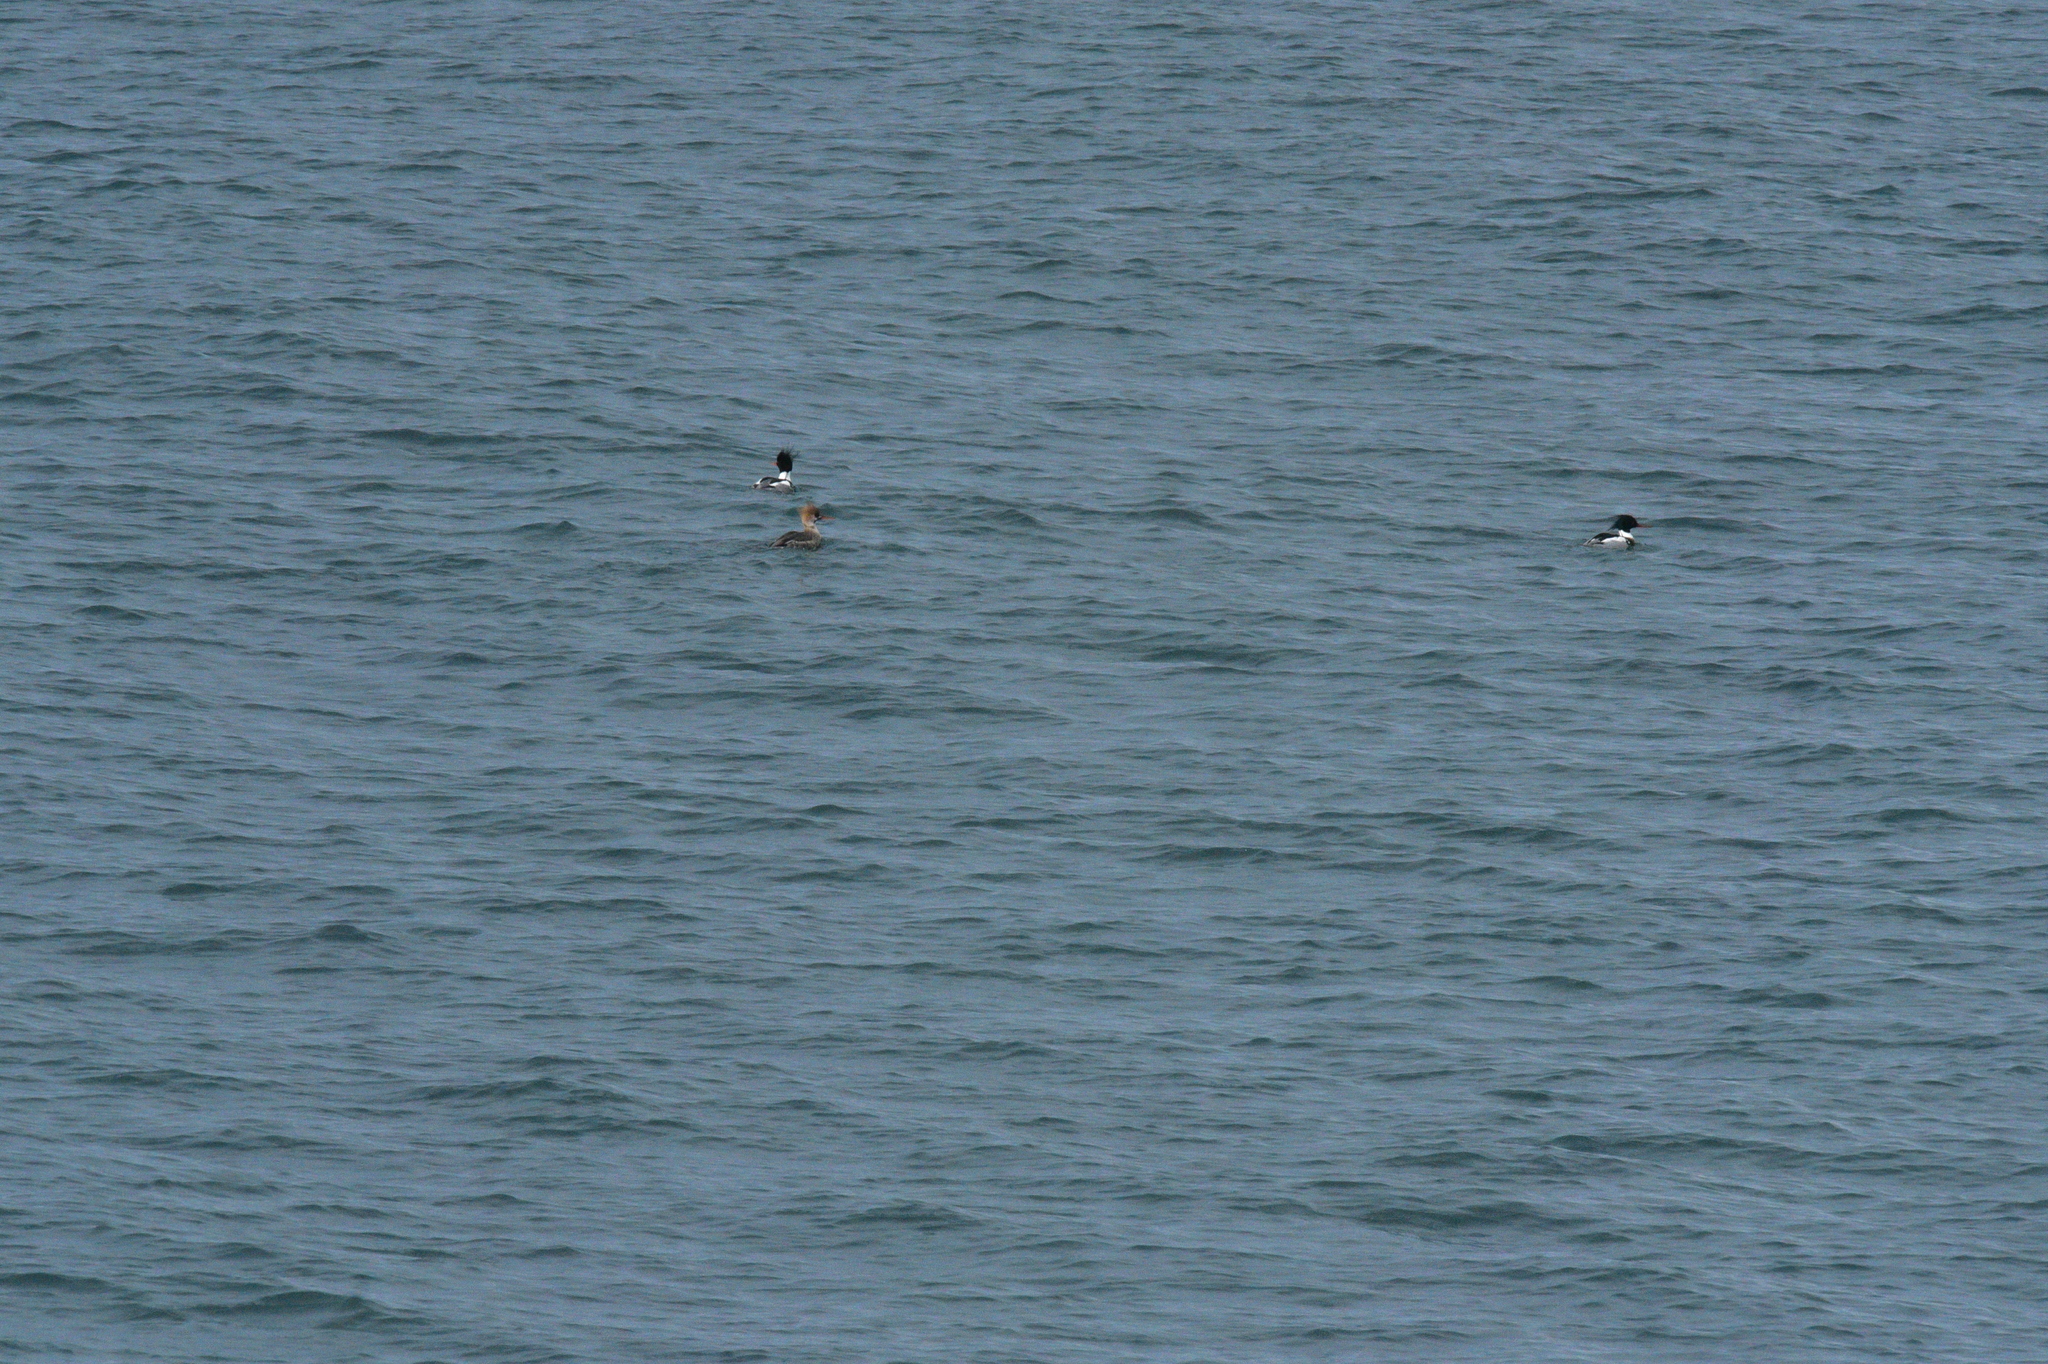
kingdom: Animalia
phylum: Chordata
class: Aves
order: Anseriformes
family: Anatidae
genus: Mergus
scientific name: Mergus serrator
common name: Red-breasted merganser
